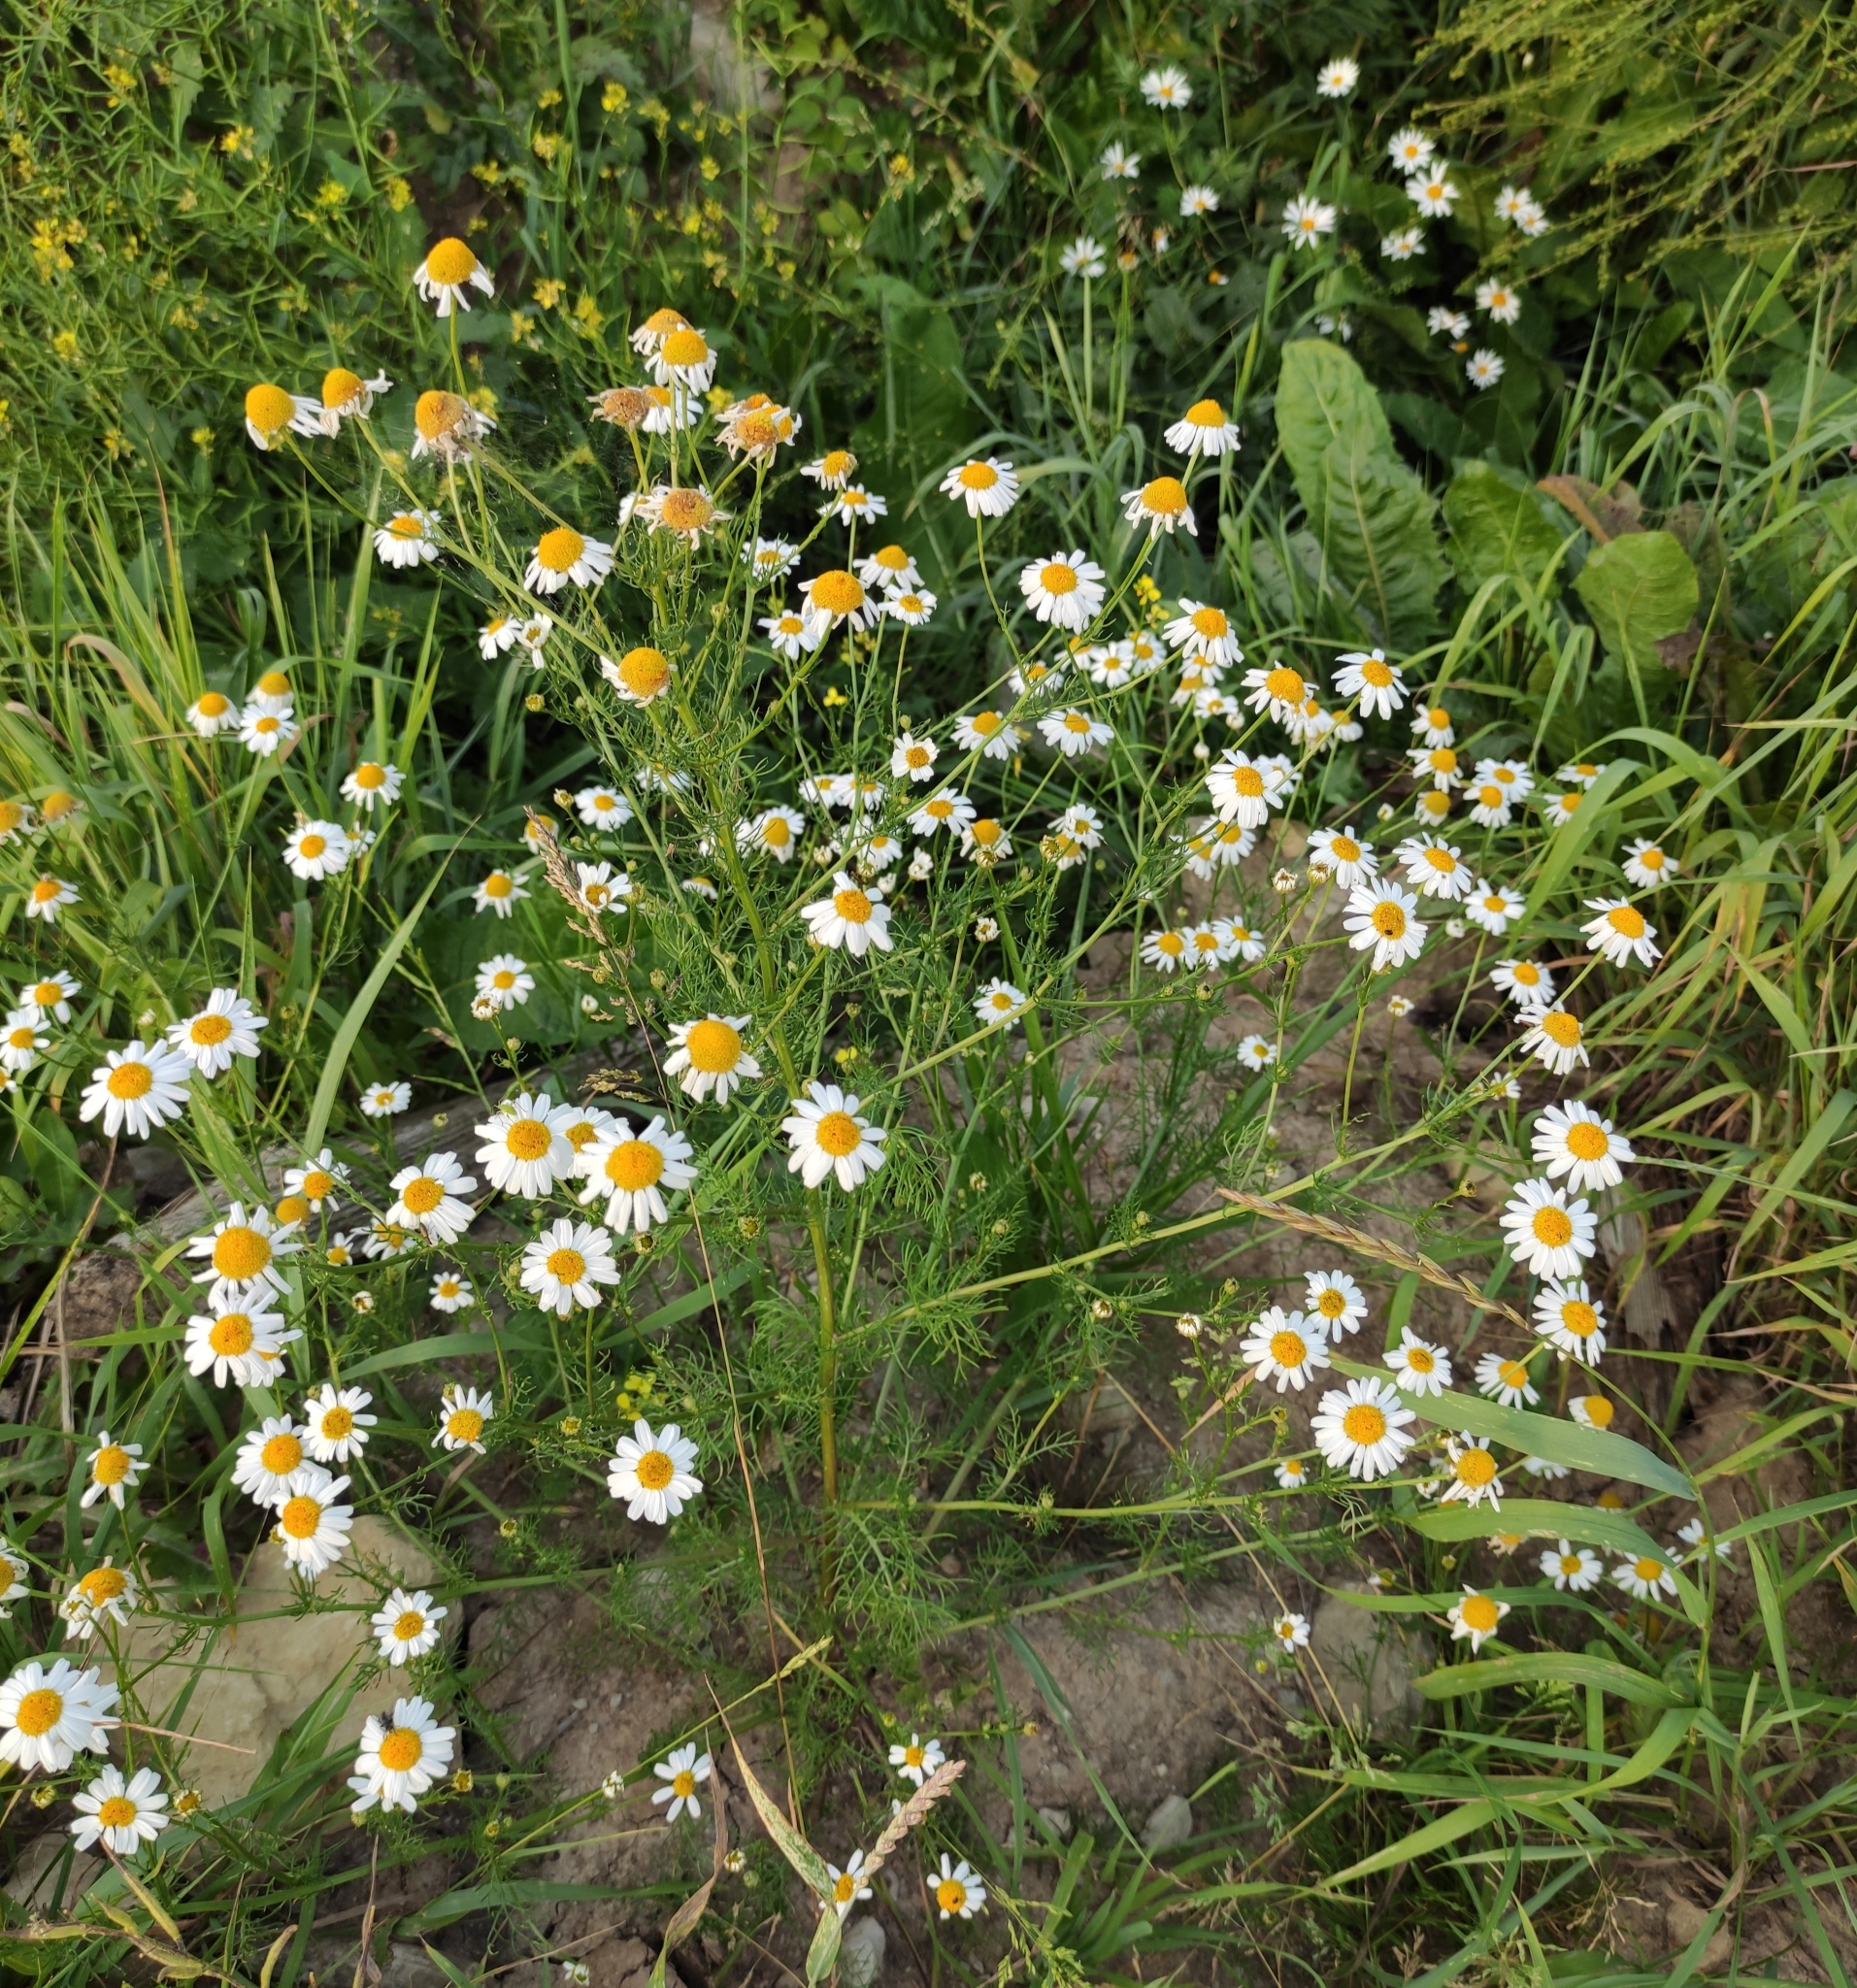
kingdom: Plantae
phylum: Tracheophyta
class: Magnoliopsida
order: Asterales
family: Asteraceae
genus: Tripleurospermum
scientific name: Tripleurospermum inodorum
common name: Scentless mayweed
